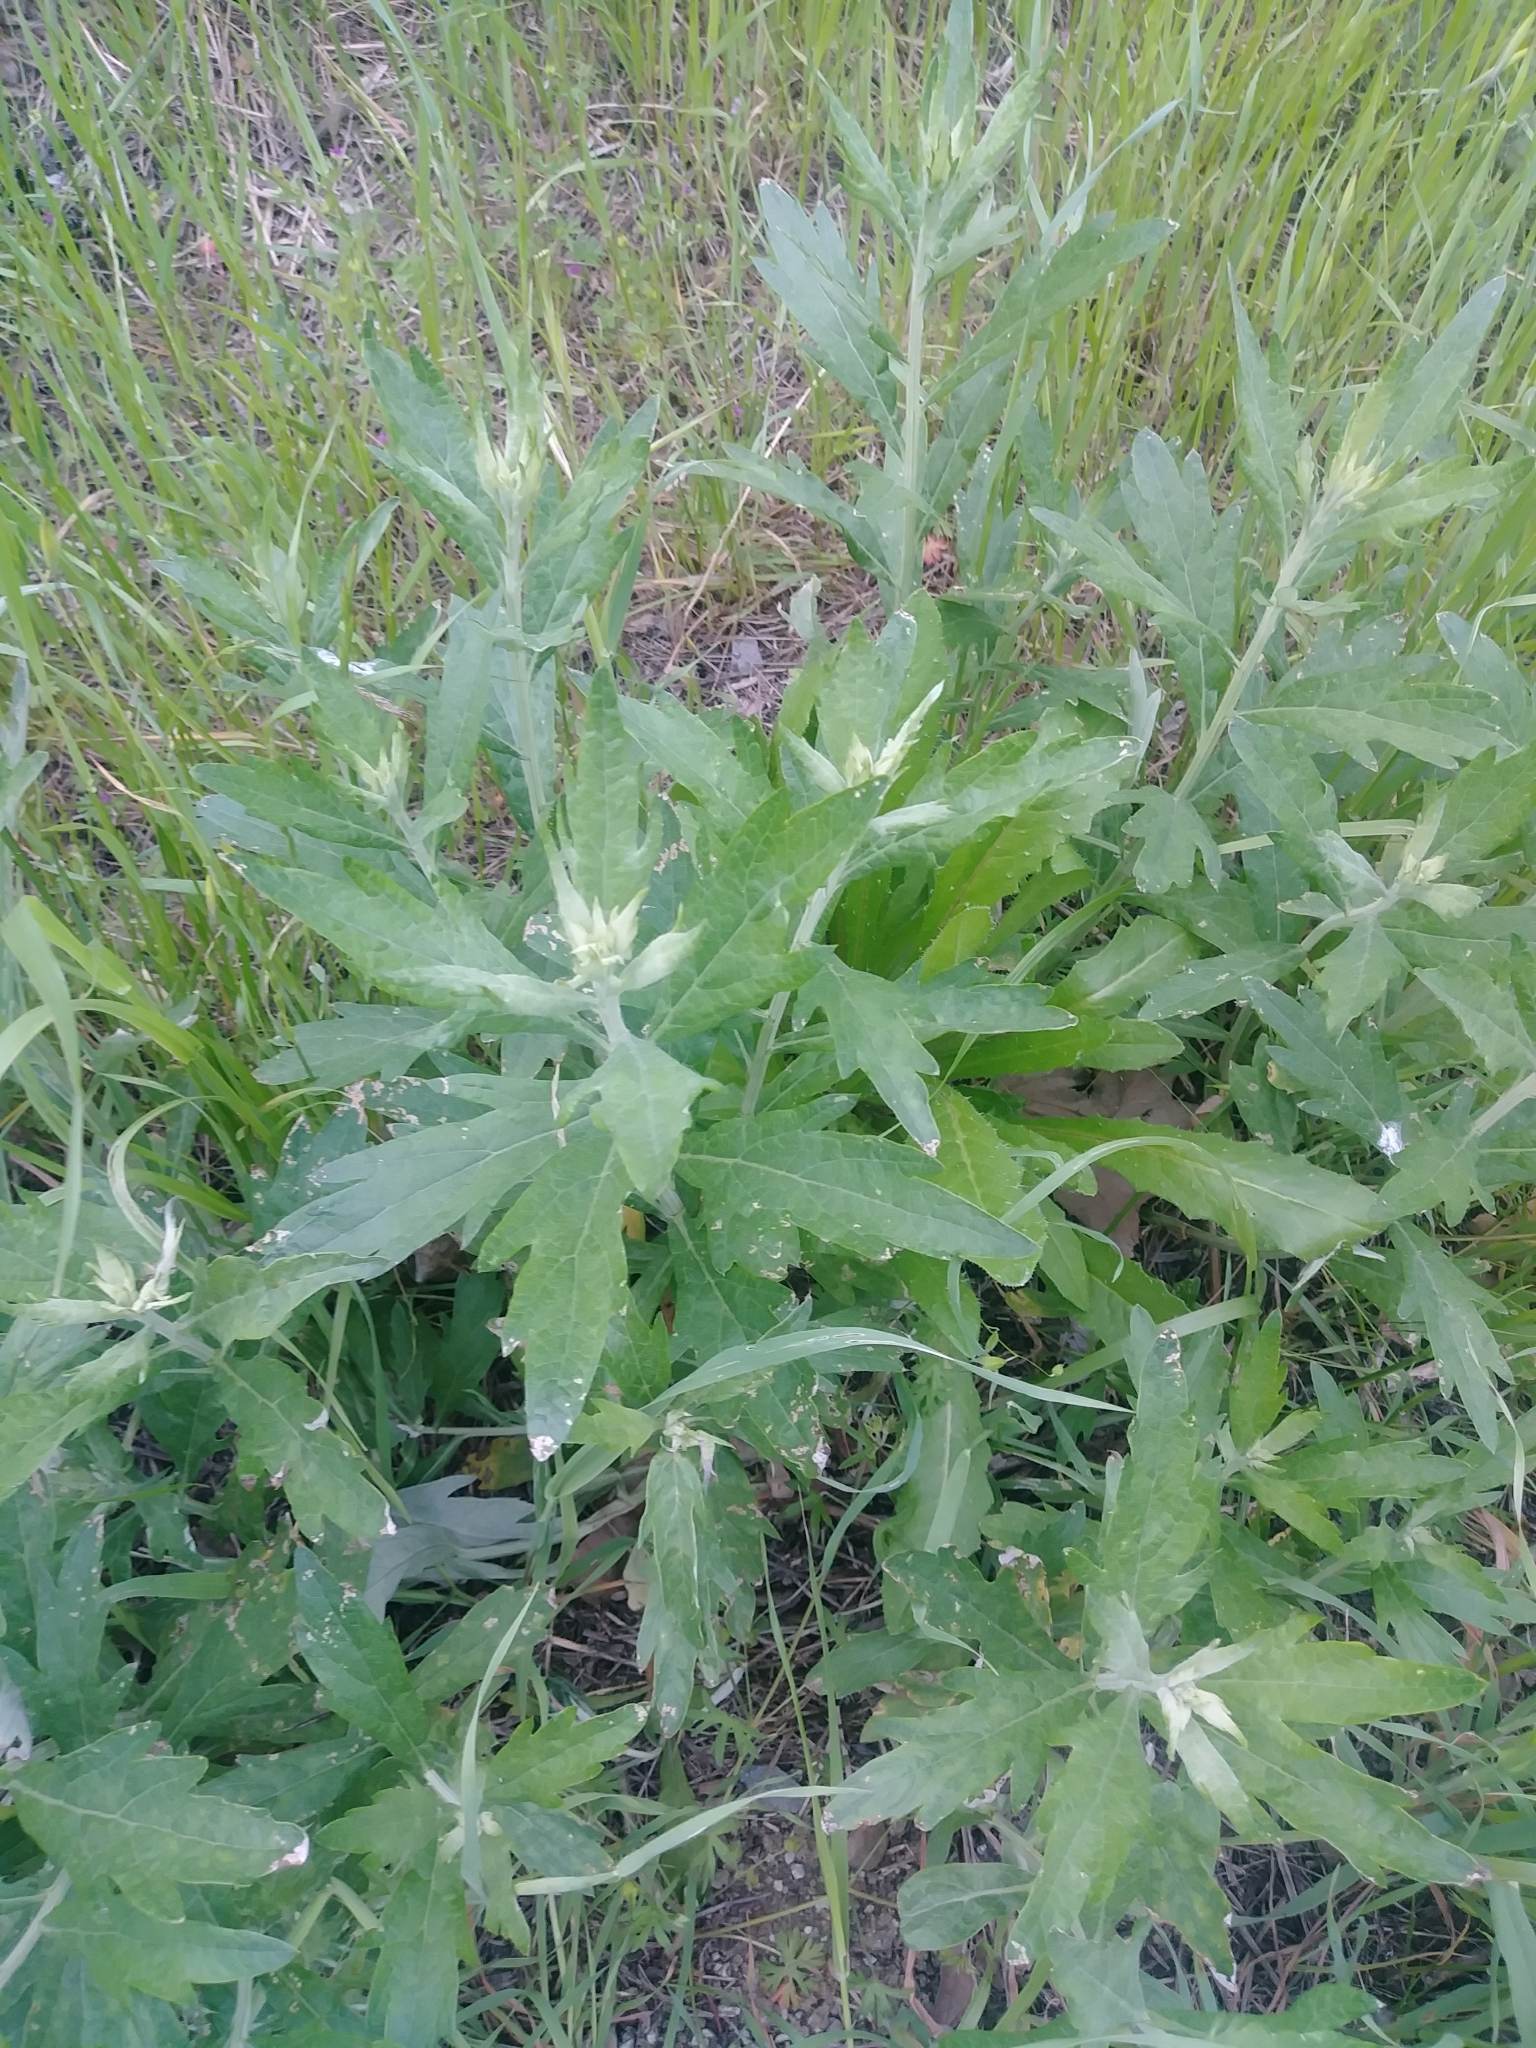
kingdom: Plantae
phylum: Tracheophyta
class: Magnoliopsida
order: Asterales
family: Asteraceae
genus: Artemisia
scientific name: Artemisia douglasiana
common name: Northwest mugwort
